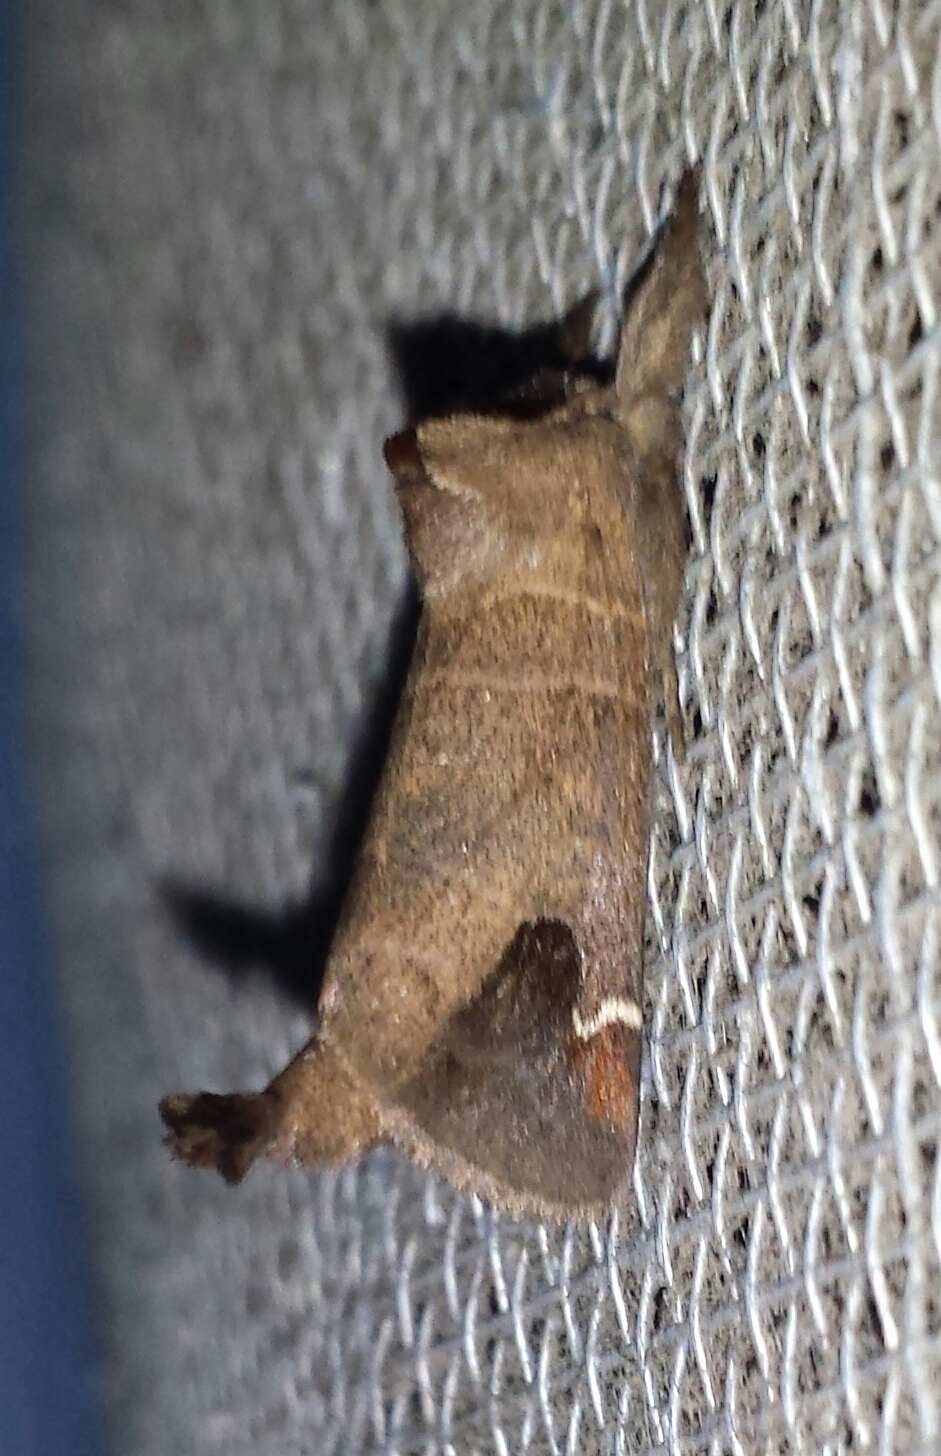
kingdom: Animalia
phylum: Arthropoda
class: Insecta
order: Lepidoptera
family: Notodontidae
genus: Clostera
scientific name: Clostera albosigma
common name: Sigmoid prominent
